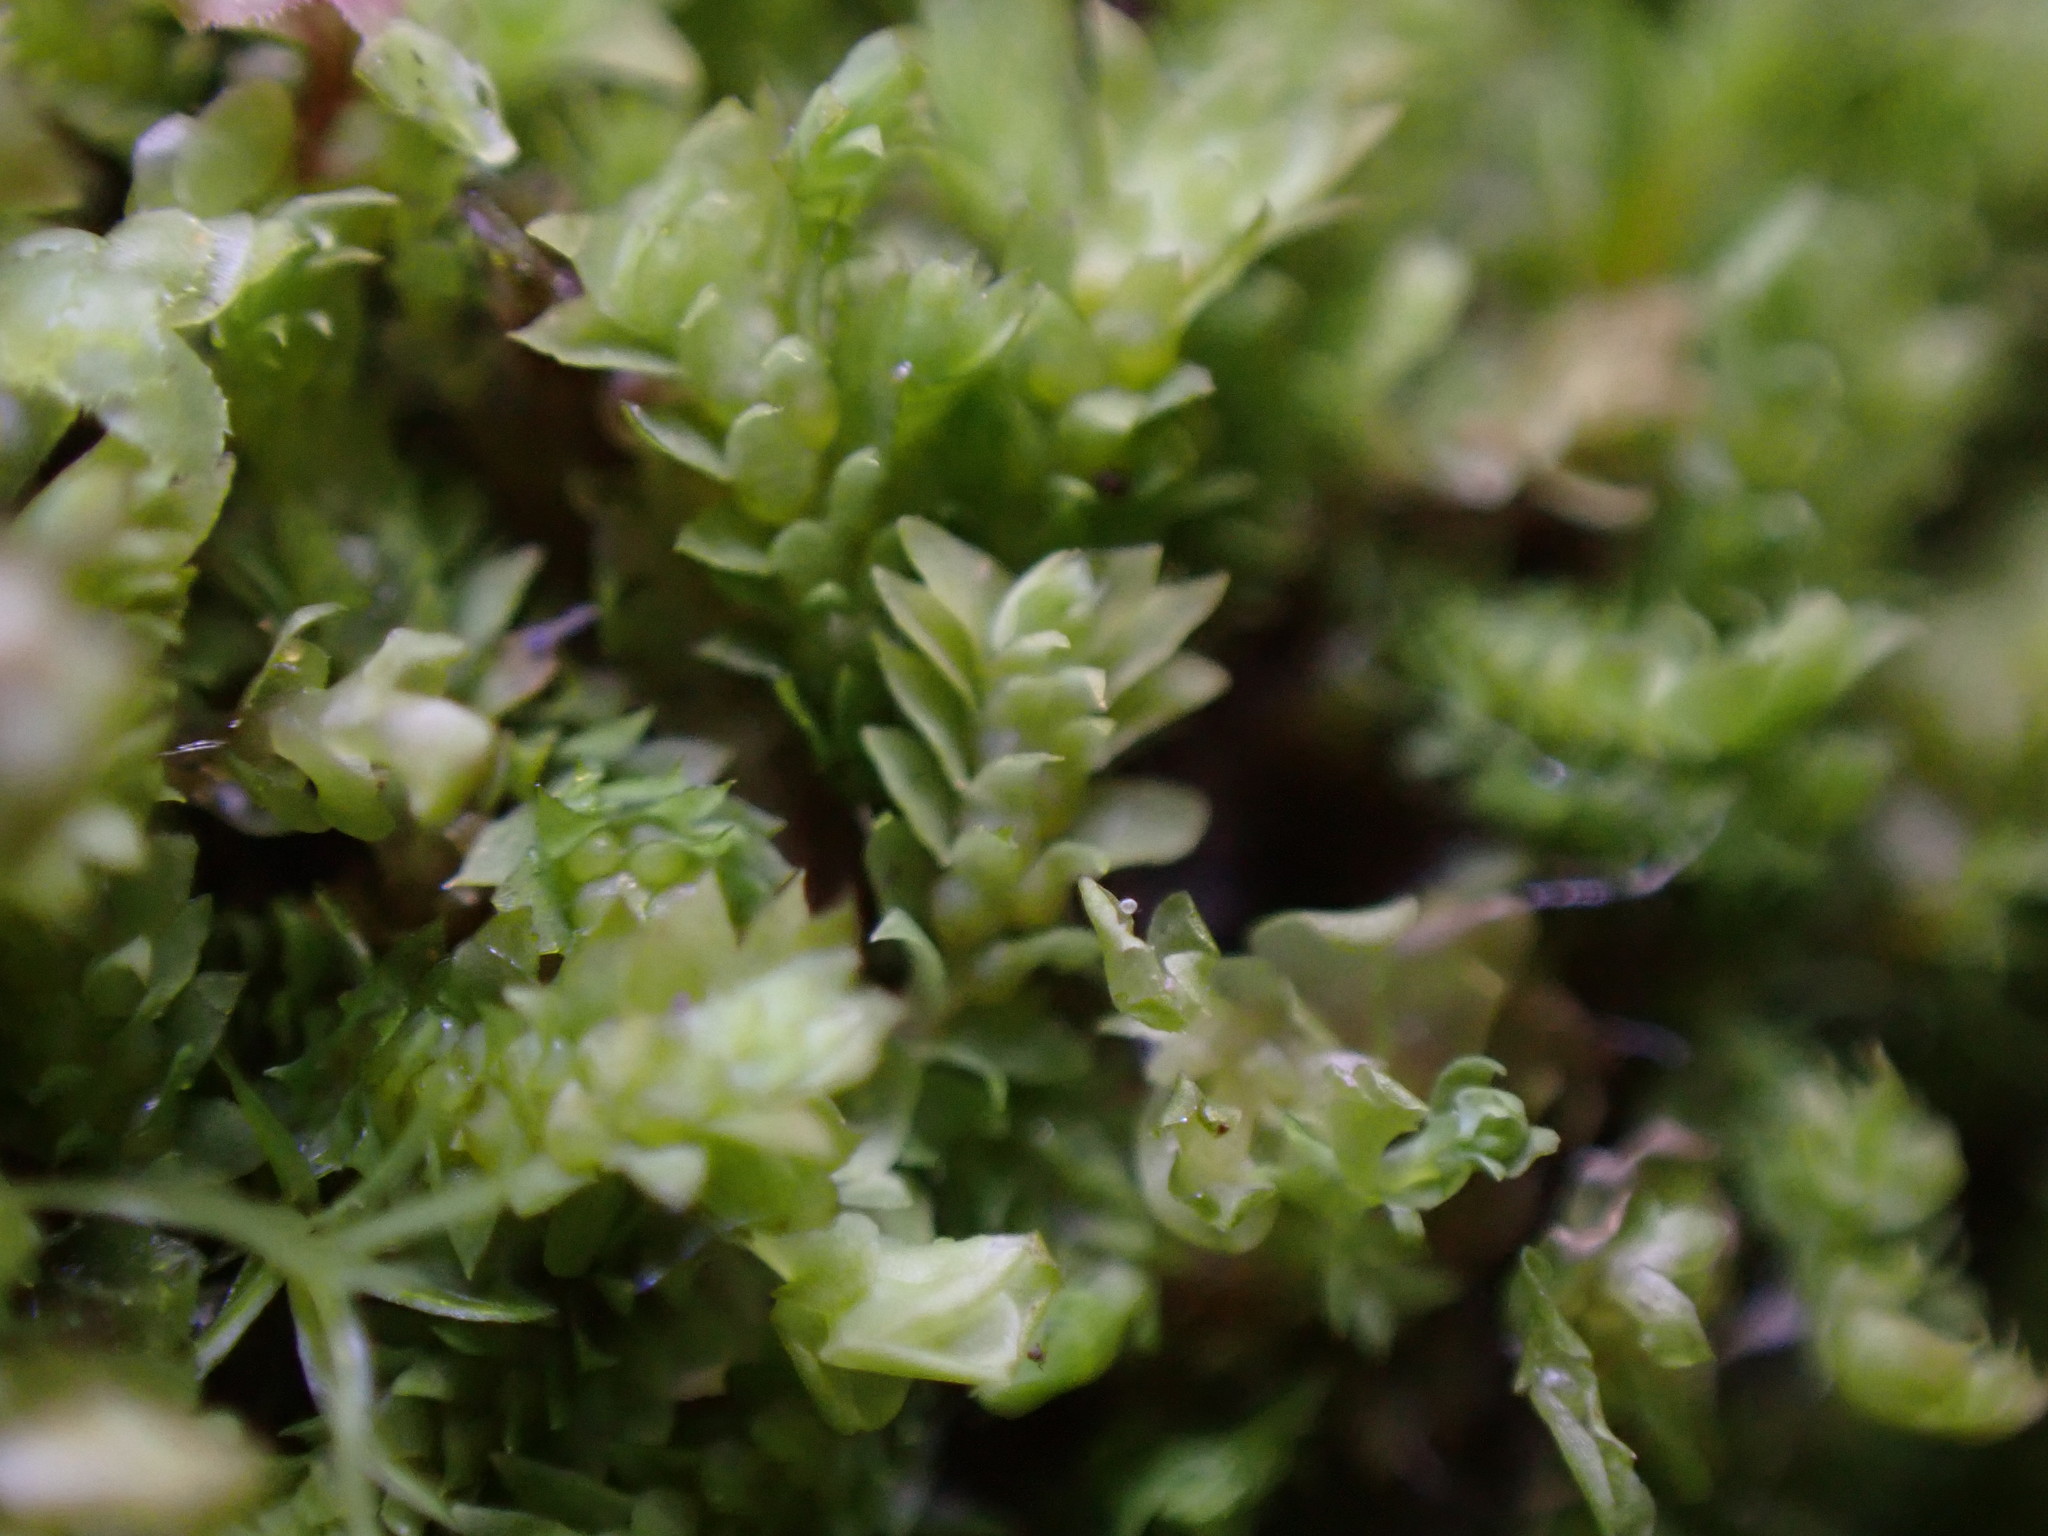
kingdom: Plantae
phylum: Marchantiophyta
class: Jungermanniopsida
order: Jungermanniales
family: Scapaniaceae
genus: Douinia
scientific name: Douinia ovata
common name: Waxy earwort
